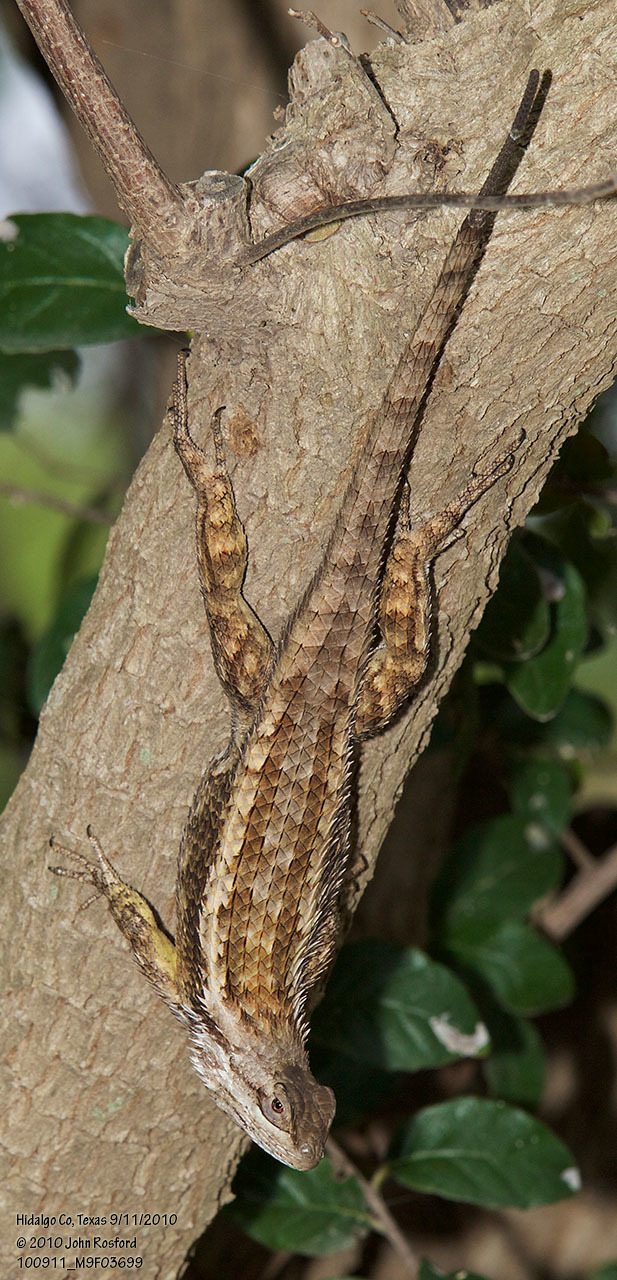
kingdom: Animalia
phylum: Chordata
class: Squamata
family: Phrynosomatidae
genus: Sceloporus
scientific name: Sceloporus olivaceus
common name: Texas spiny lizard
